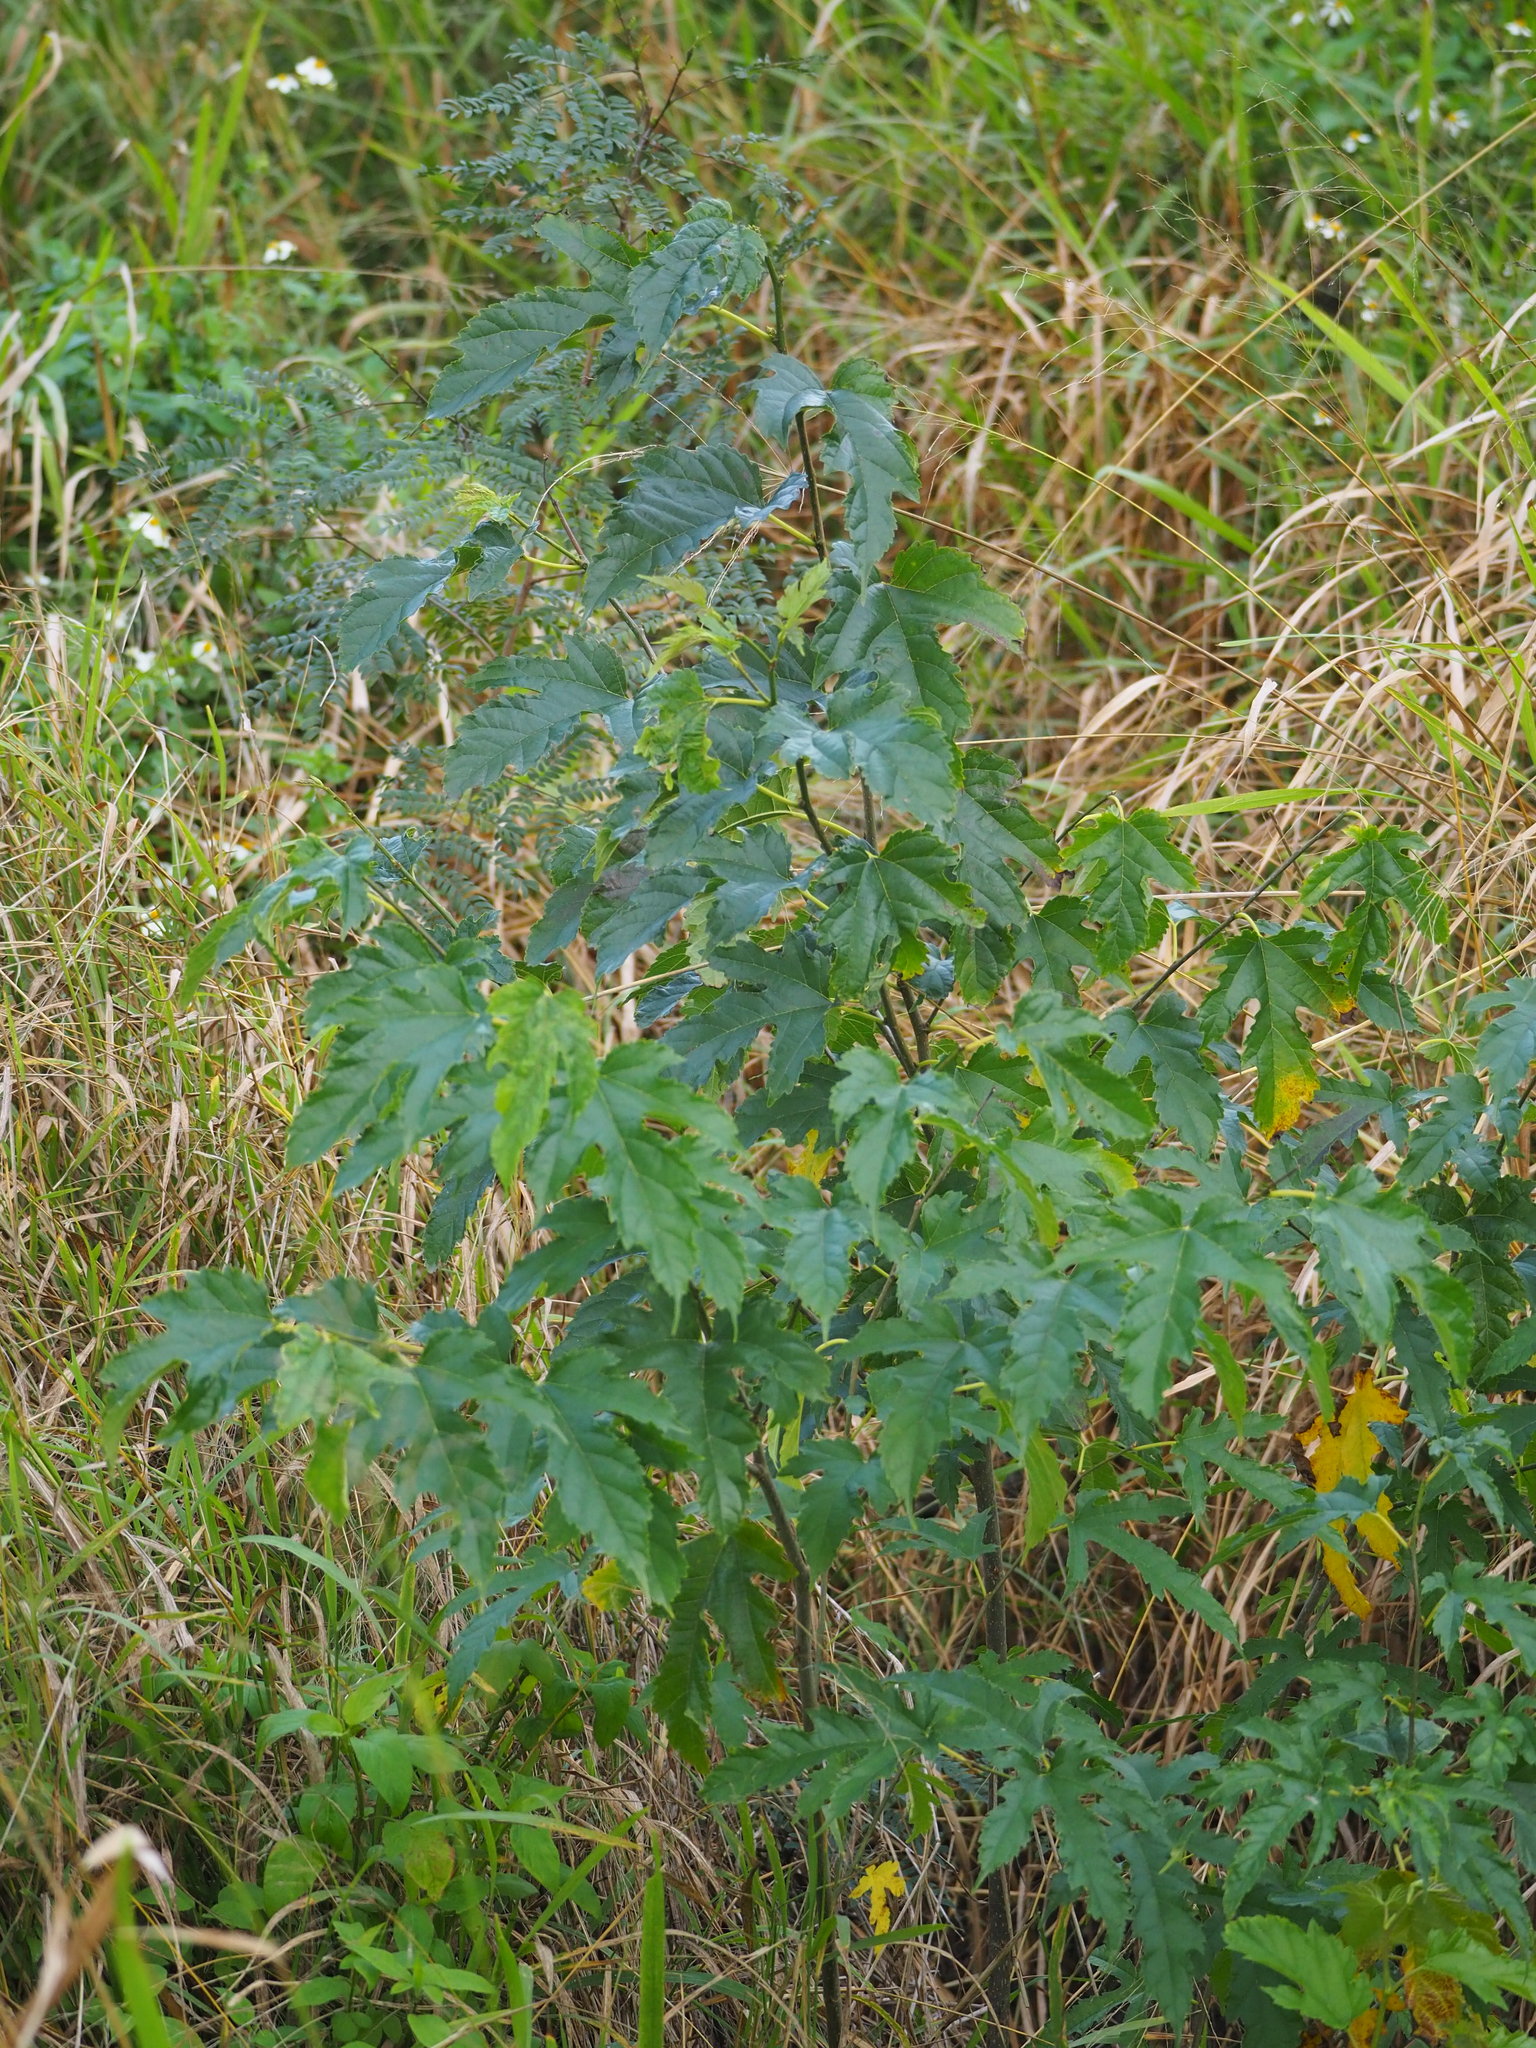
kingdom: Plantae
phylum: Tracheophyta
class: Magnoliopsida
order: Rosales
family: Moraceae
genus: Morus
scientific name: Morus indica
